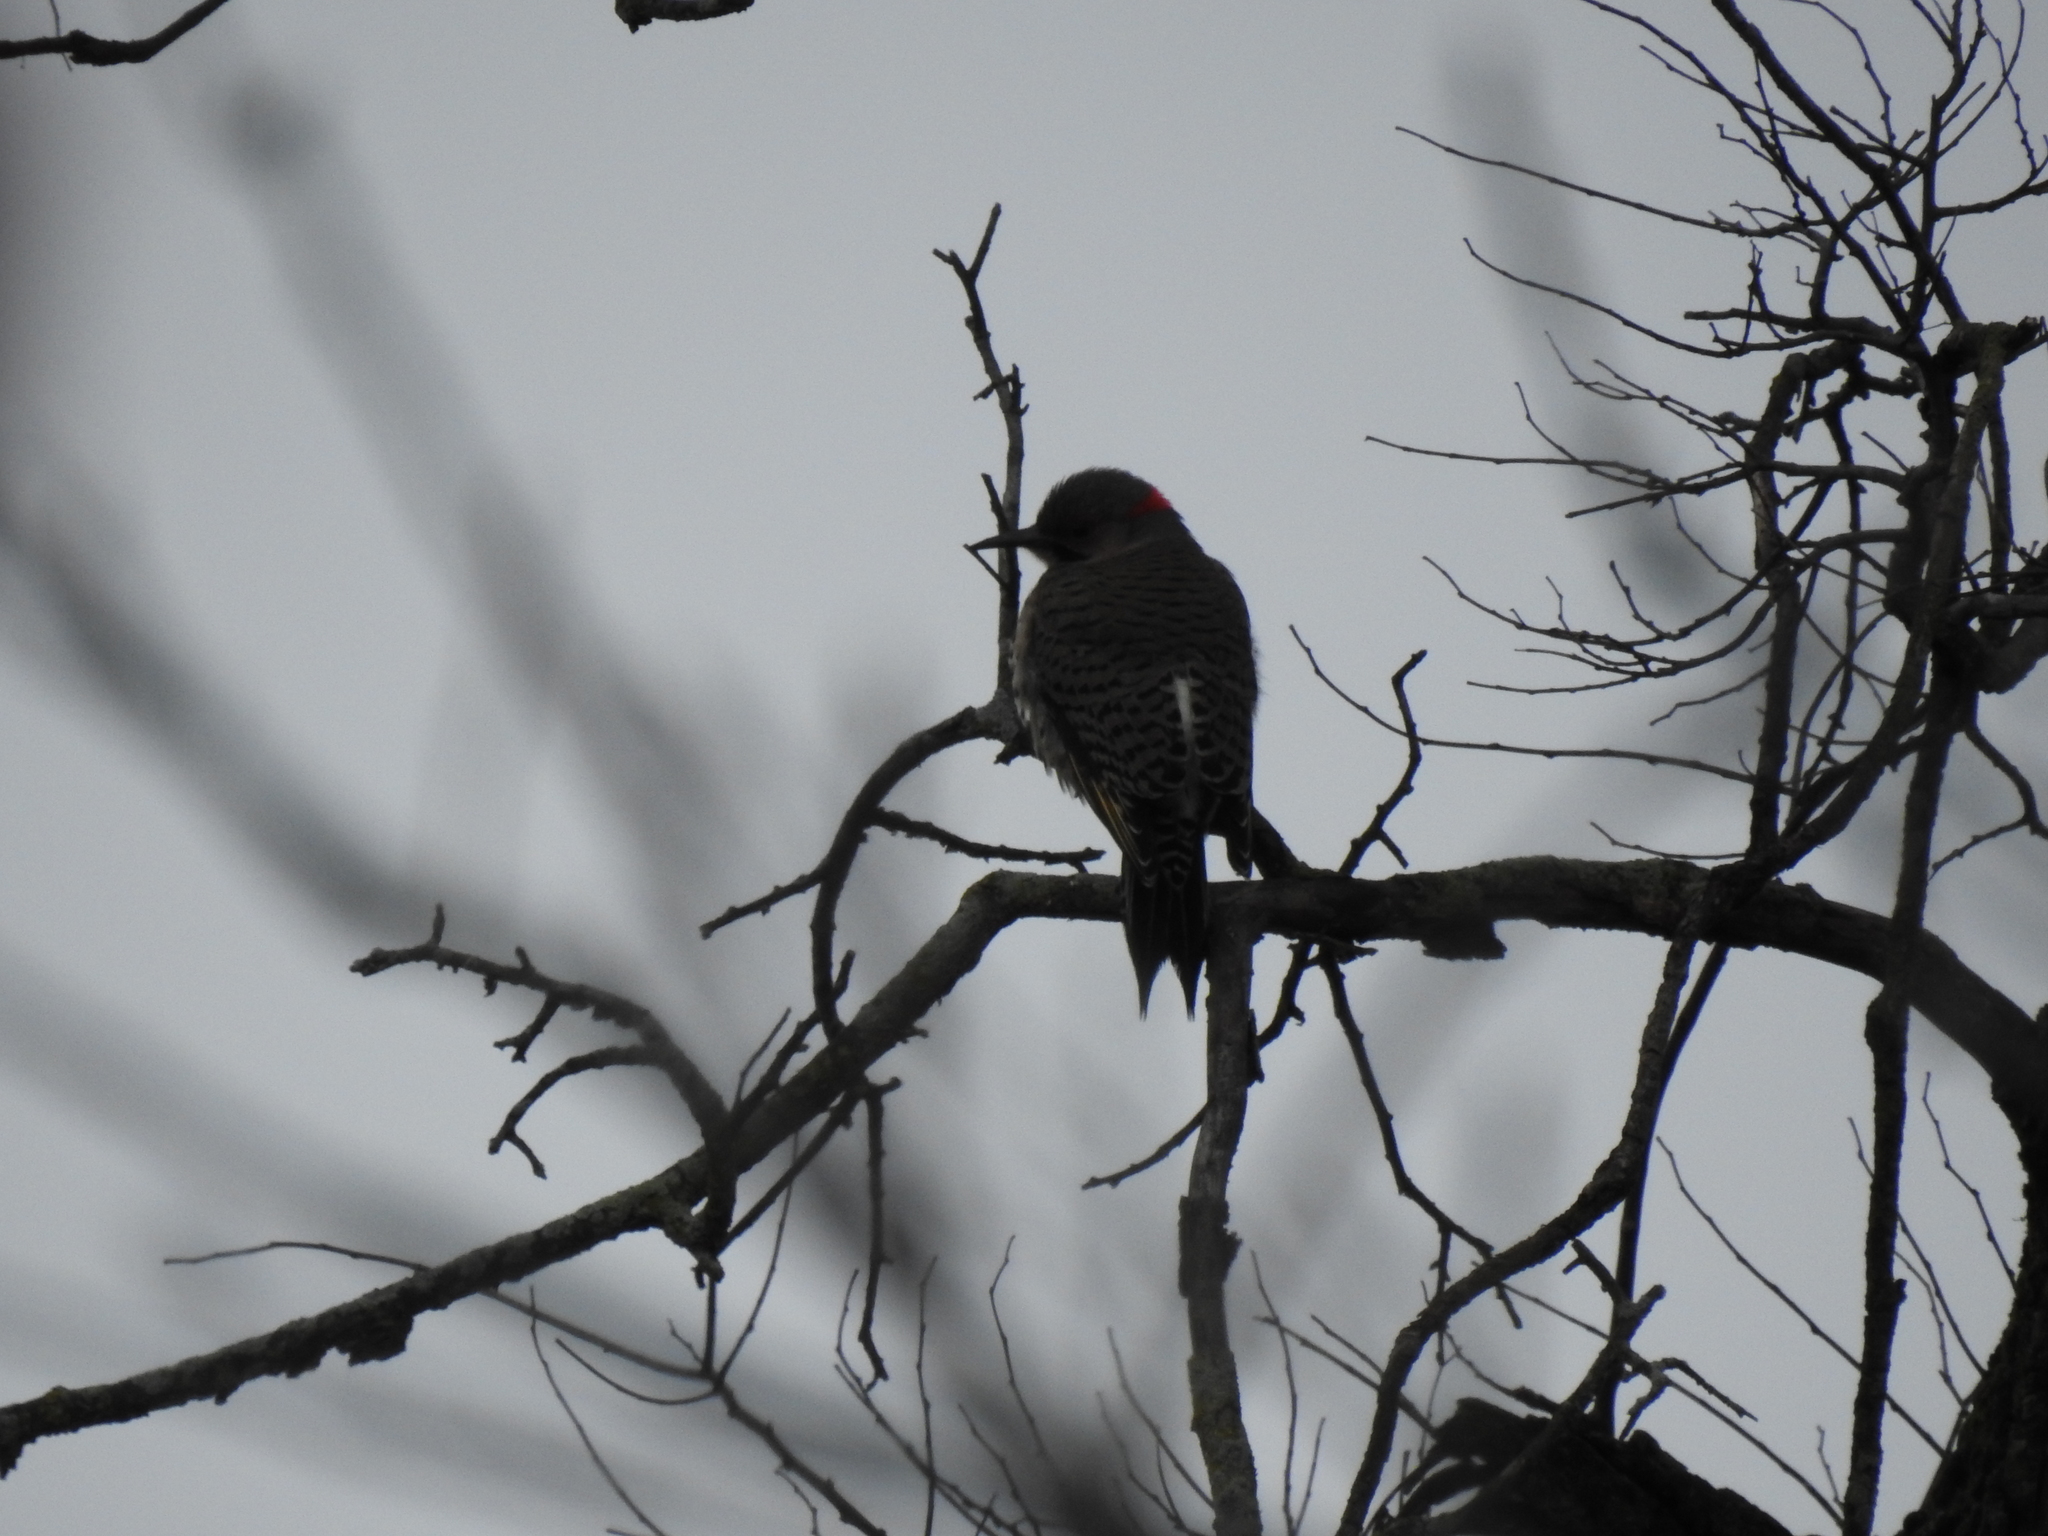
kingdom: Animalia
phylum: Chordata
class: Aves
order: Piciformes
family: Picidae
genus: Colaptes
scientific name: Colaptes auratus
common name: Northern flicker
